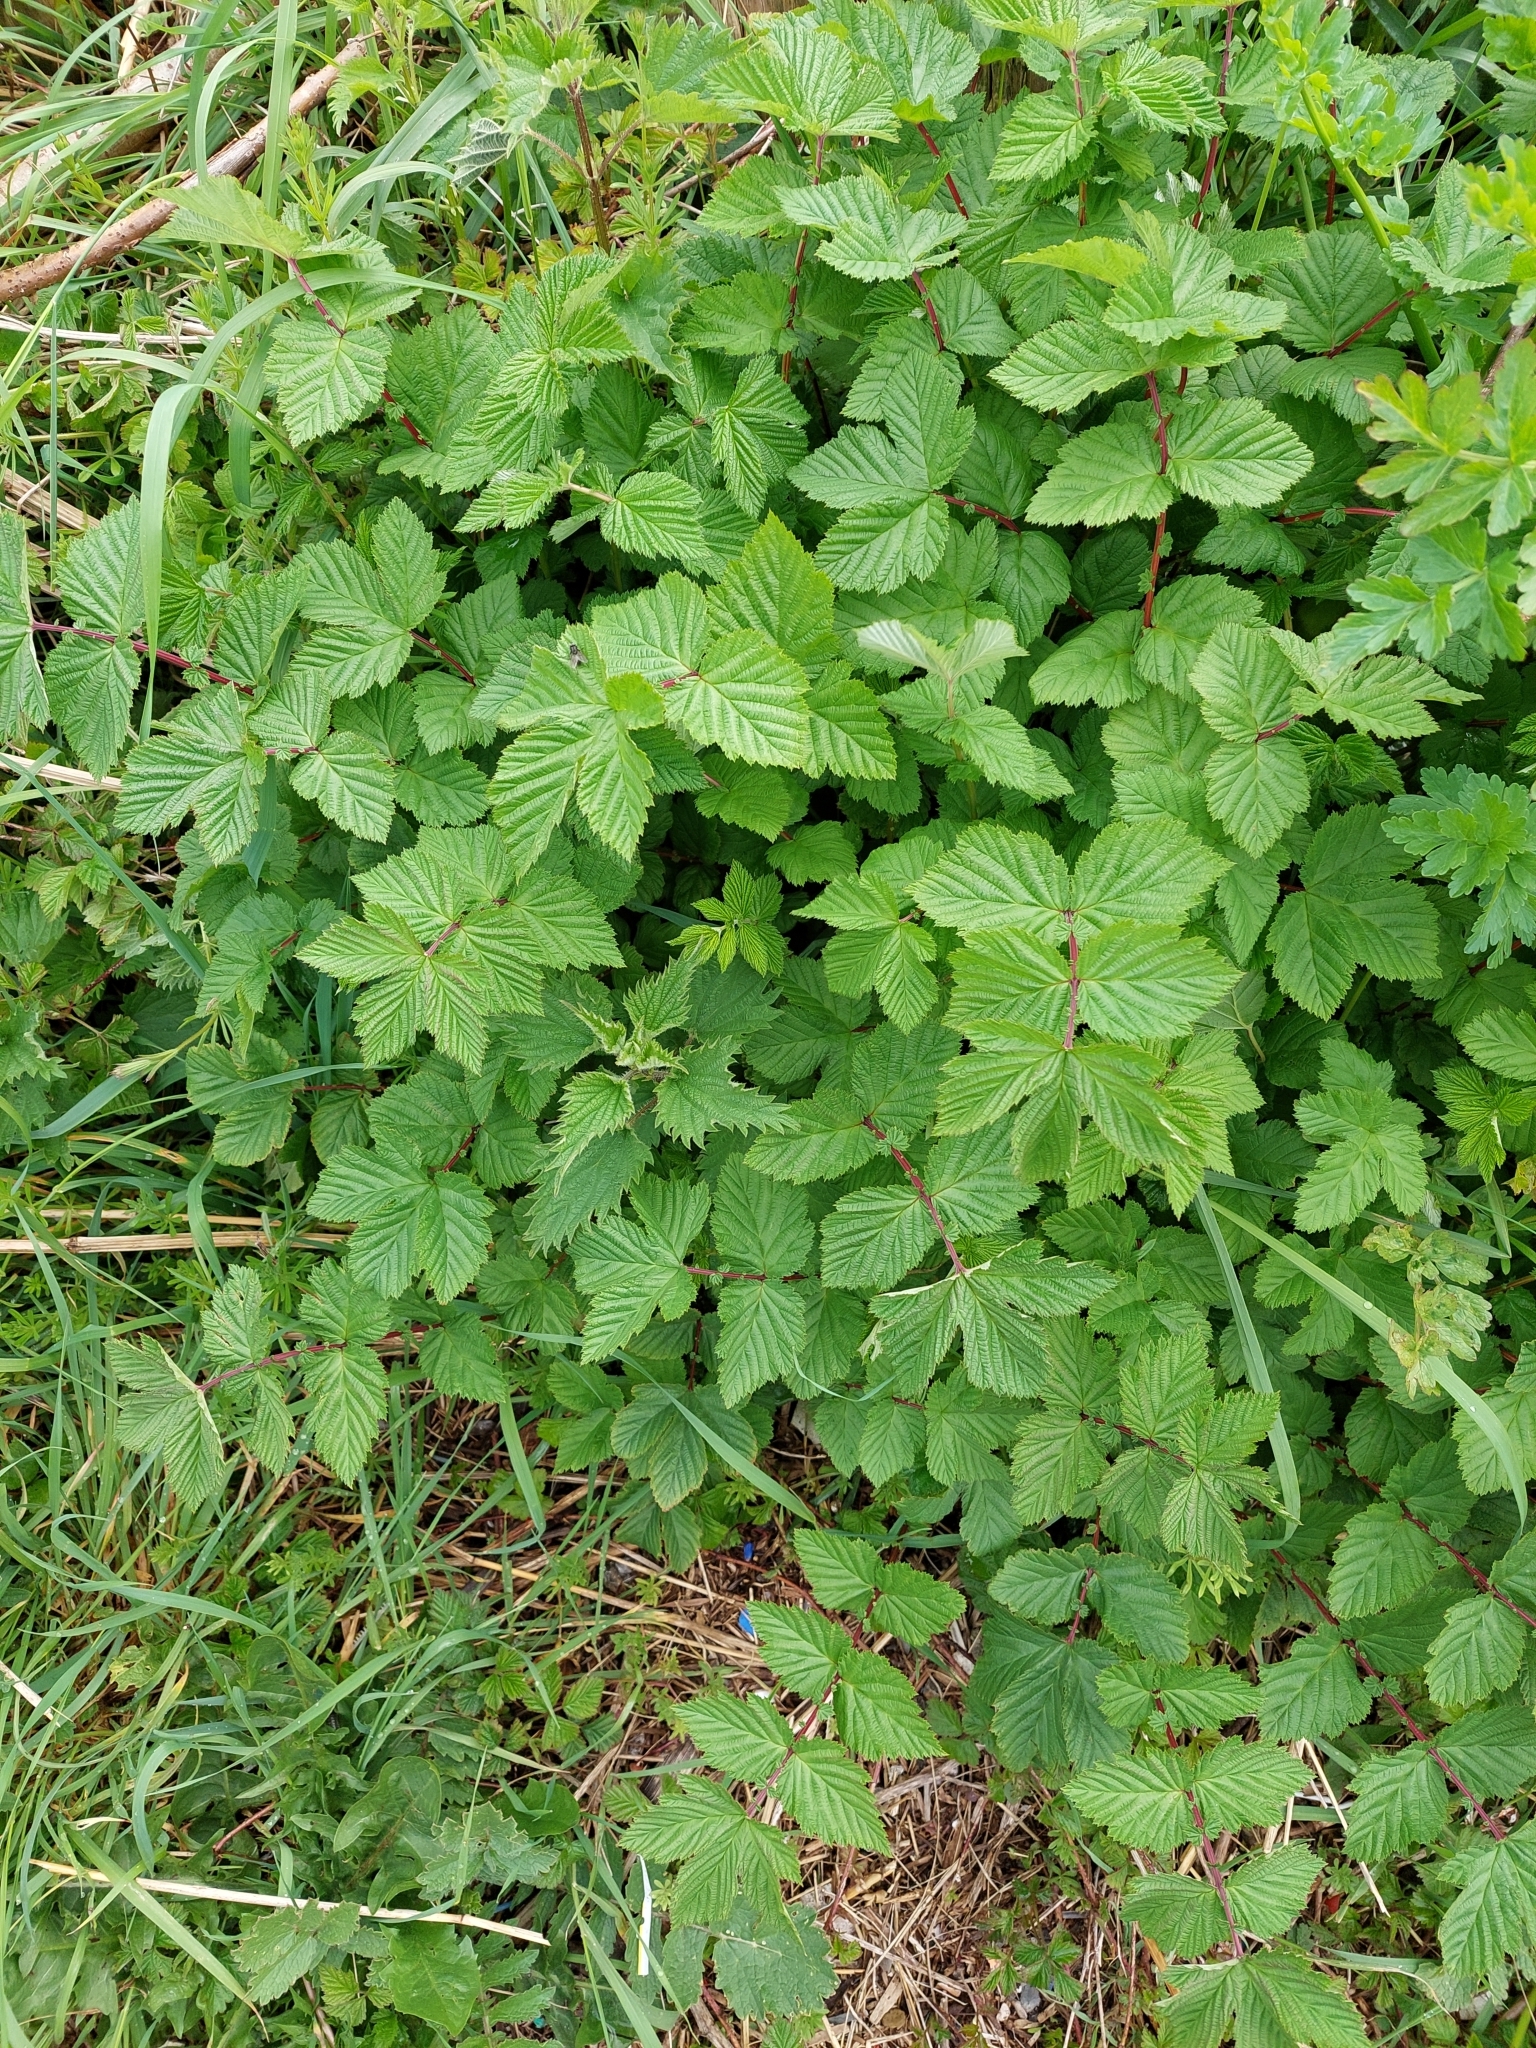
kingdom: Plantae
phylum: Tracheophyta
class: Magnoliopsida
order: Rosales
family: Rosaceae
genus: Filipendula
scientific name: Filipendula ulmaria
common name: Meadowsweet
